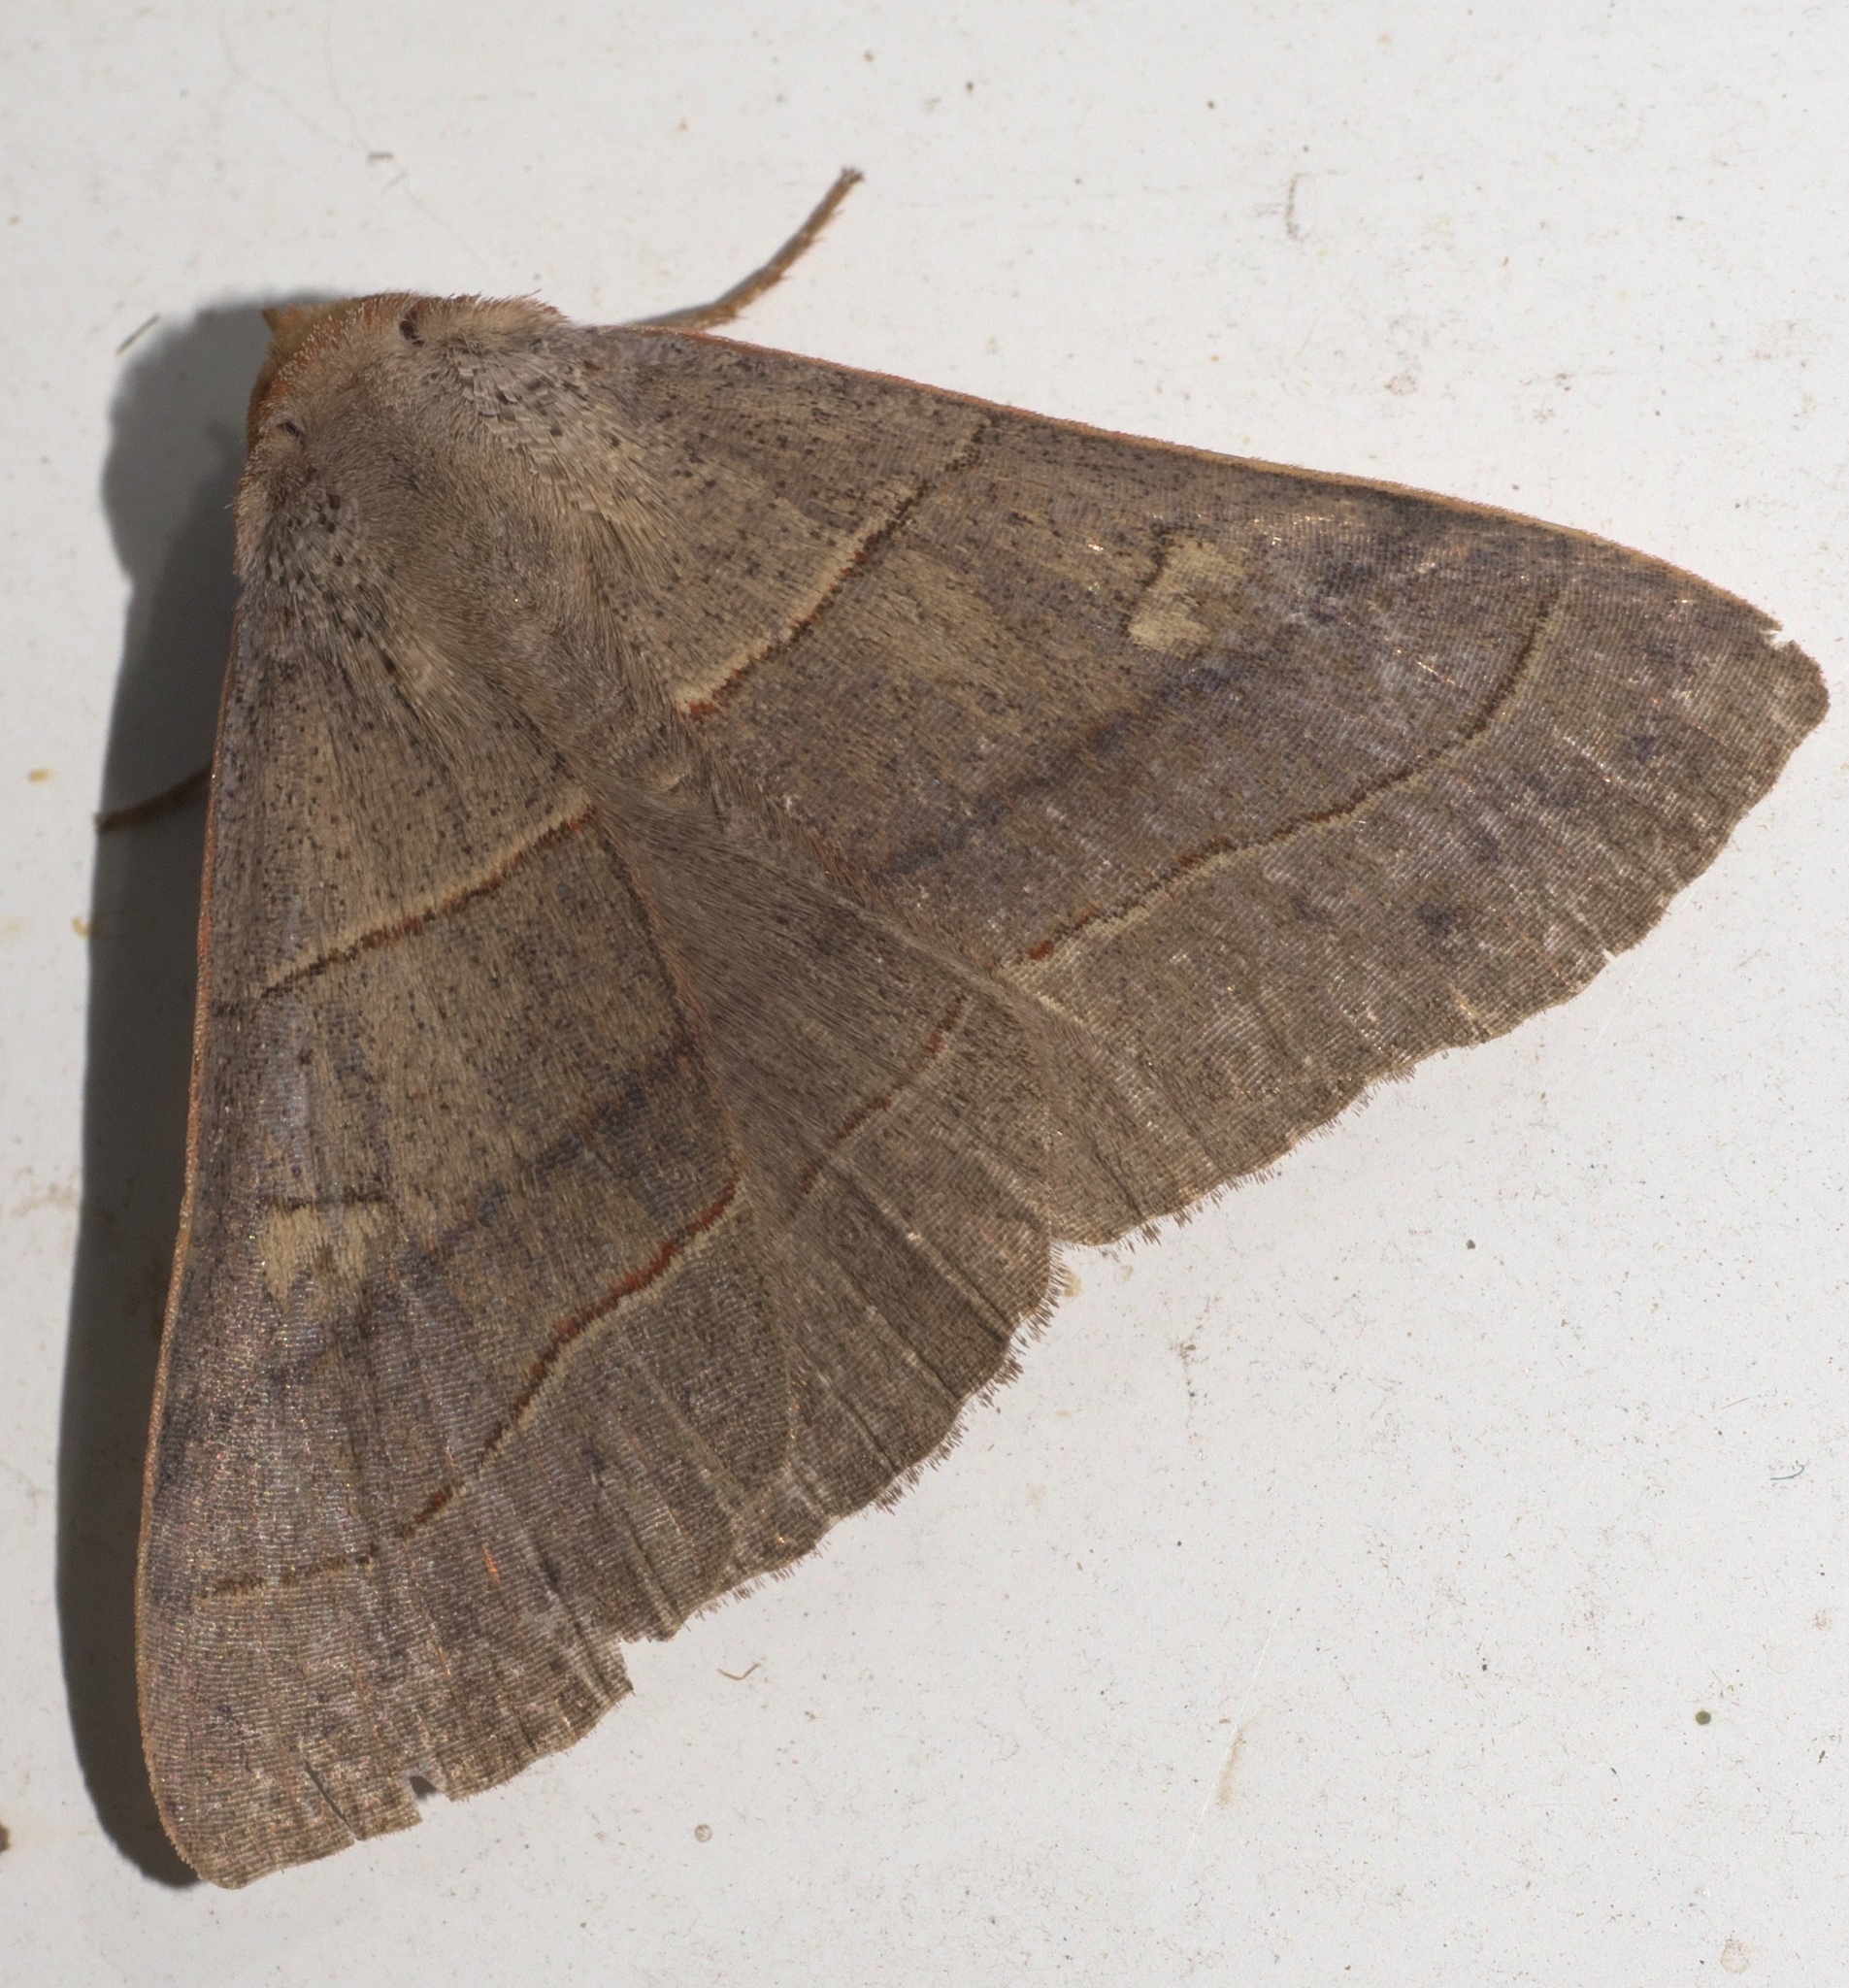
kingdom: Animalia
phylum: Arthropoda
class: Insecta
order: Lepidoptera
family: Erebidae
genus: Panopoda
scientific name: Panopoda rufimargo
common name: Red-lined panopoda moth
